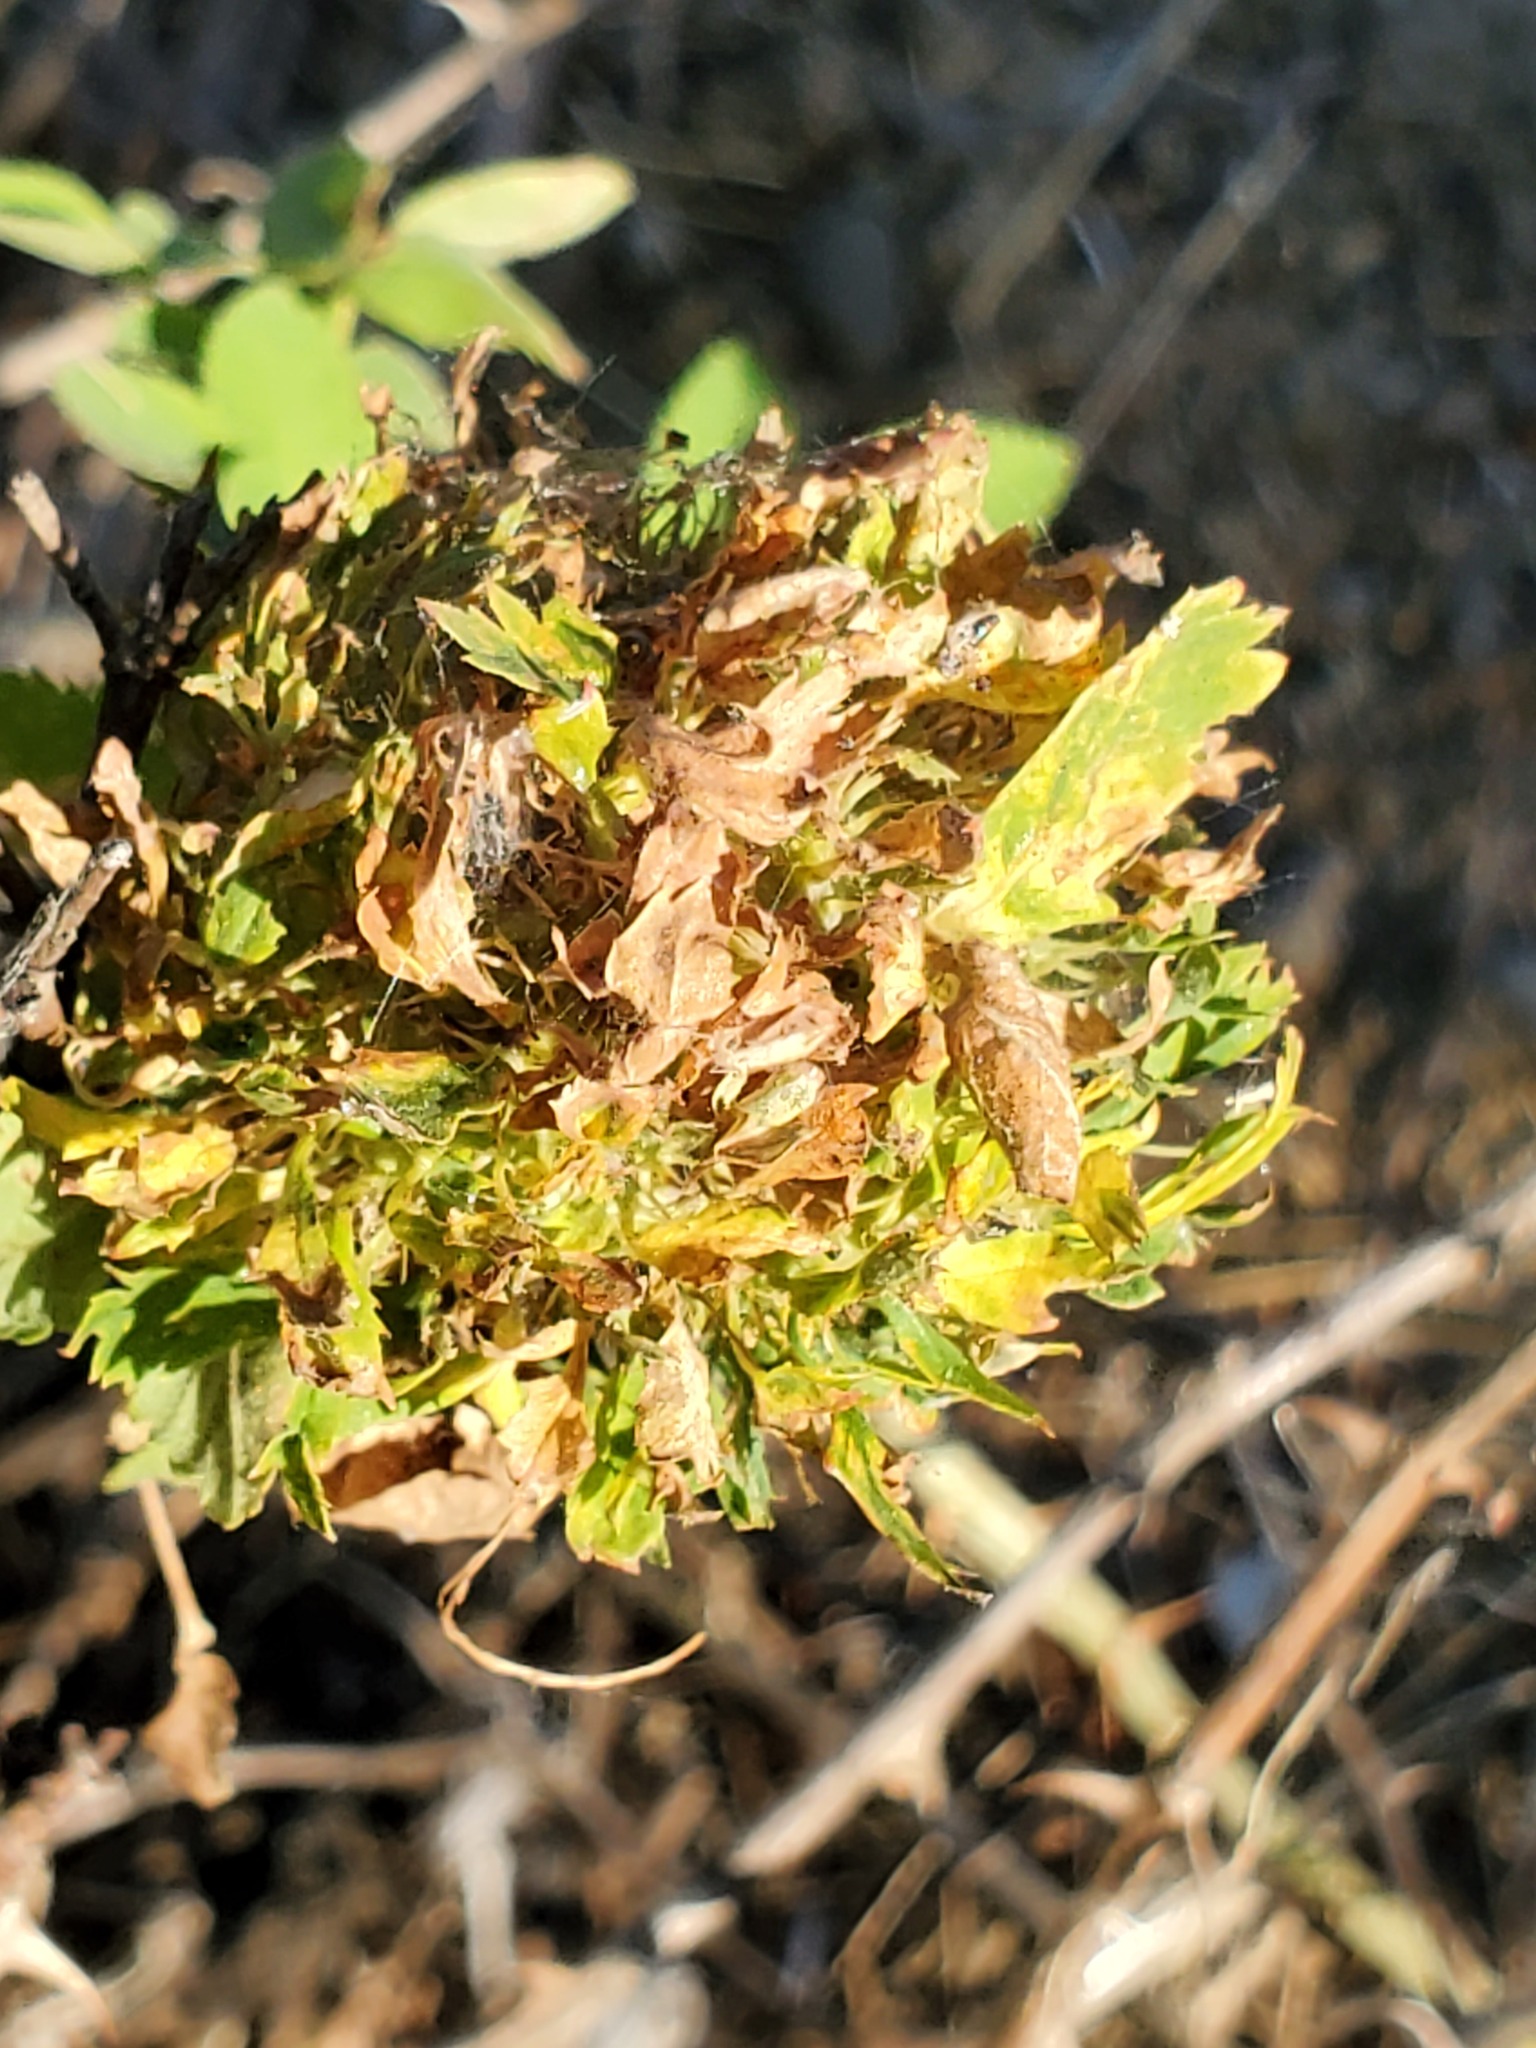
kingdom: Animalia
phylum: Arthropoda
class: Insecta
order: Hymenoptera
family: Cynipidae
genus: Diplolepis
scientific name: Diplolepis californica
